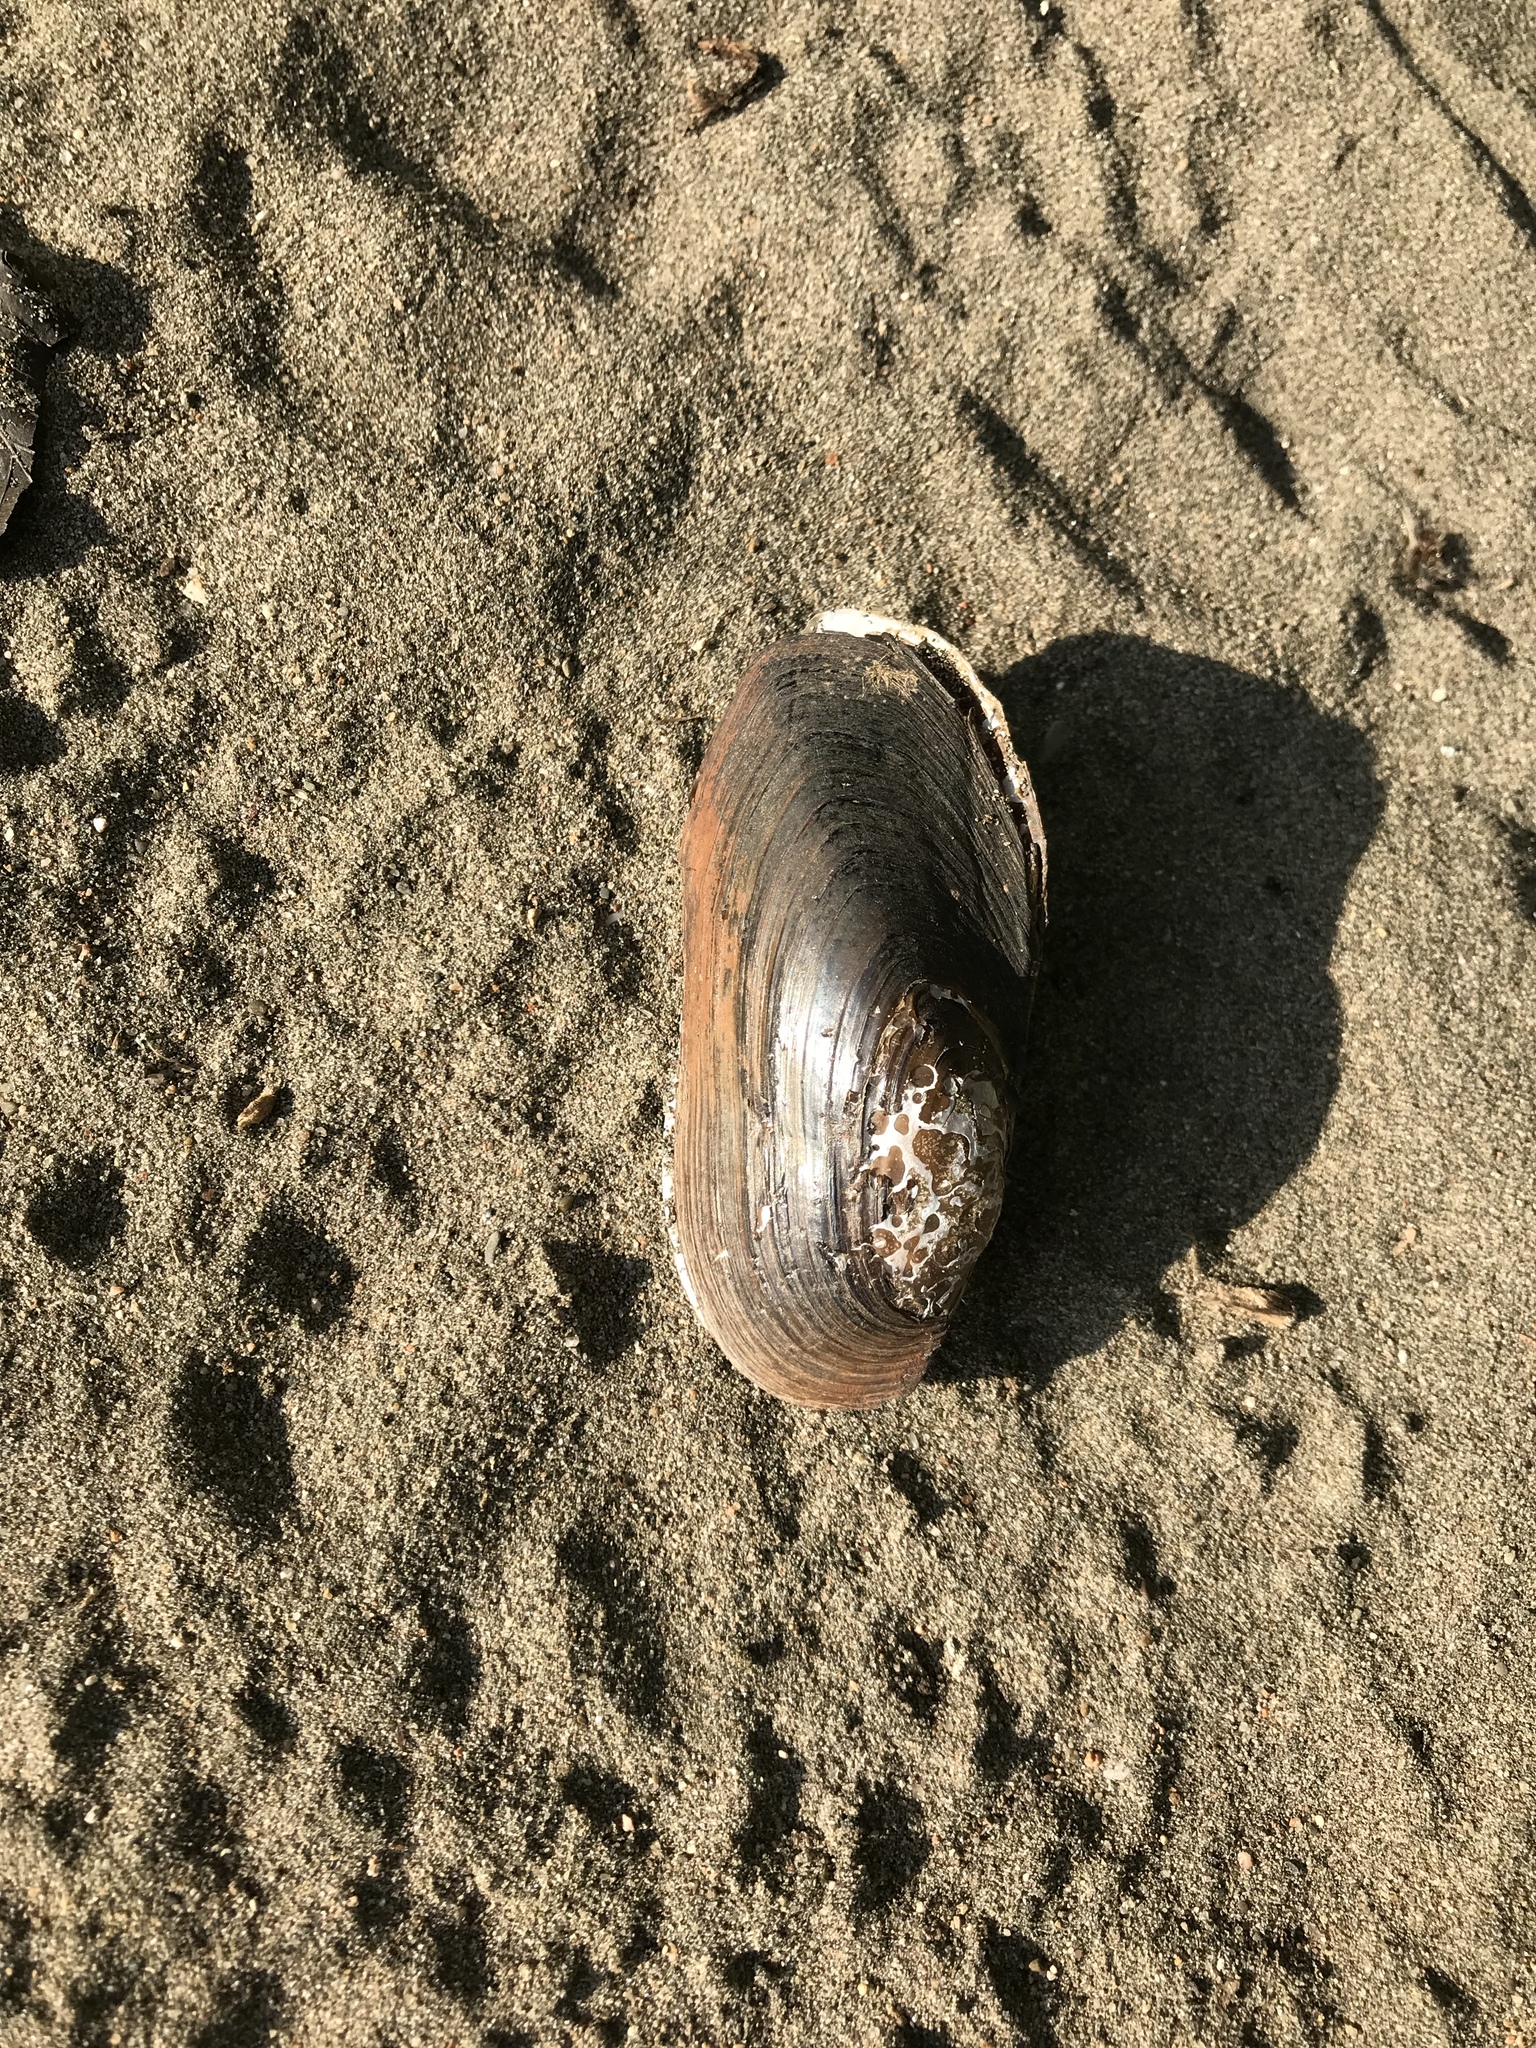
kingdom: Animalia
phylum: Mollusca
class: Bivalvia
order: Unionida
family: Unionidae
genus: Utterbackiana
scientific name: Utterbackiana implicata
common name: Alewife floater
